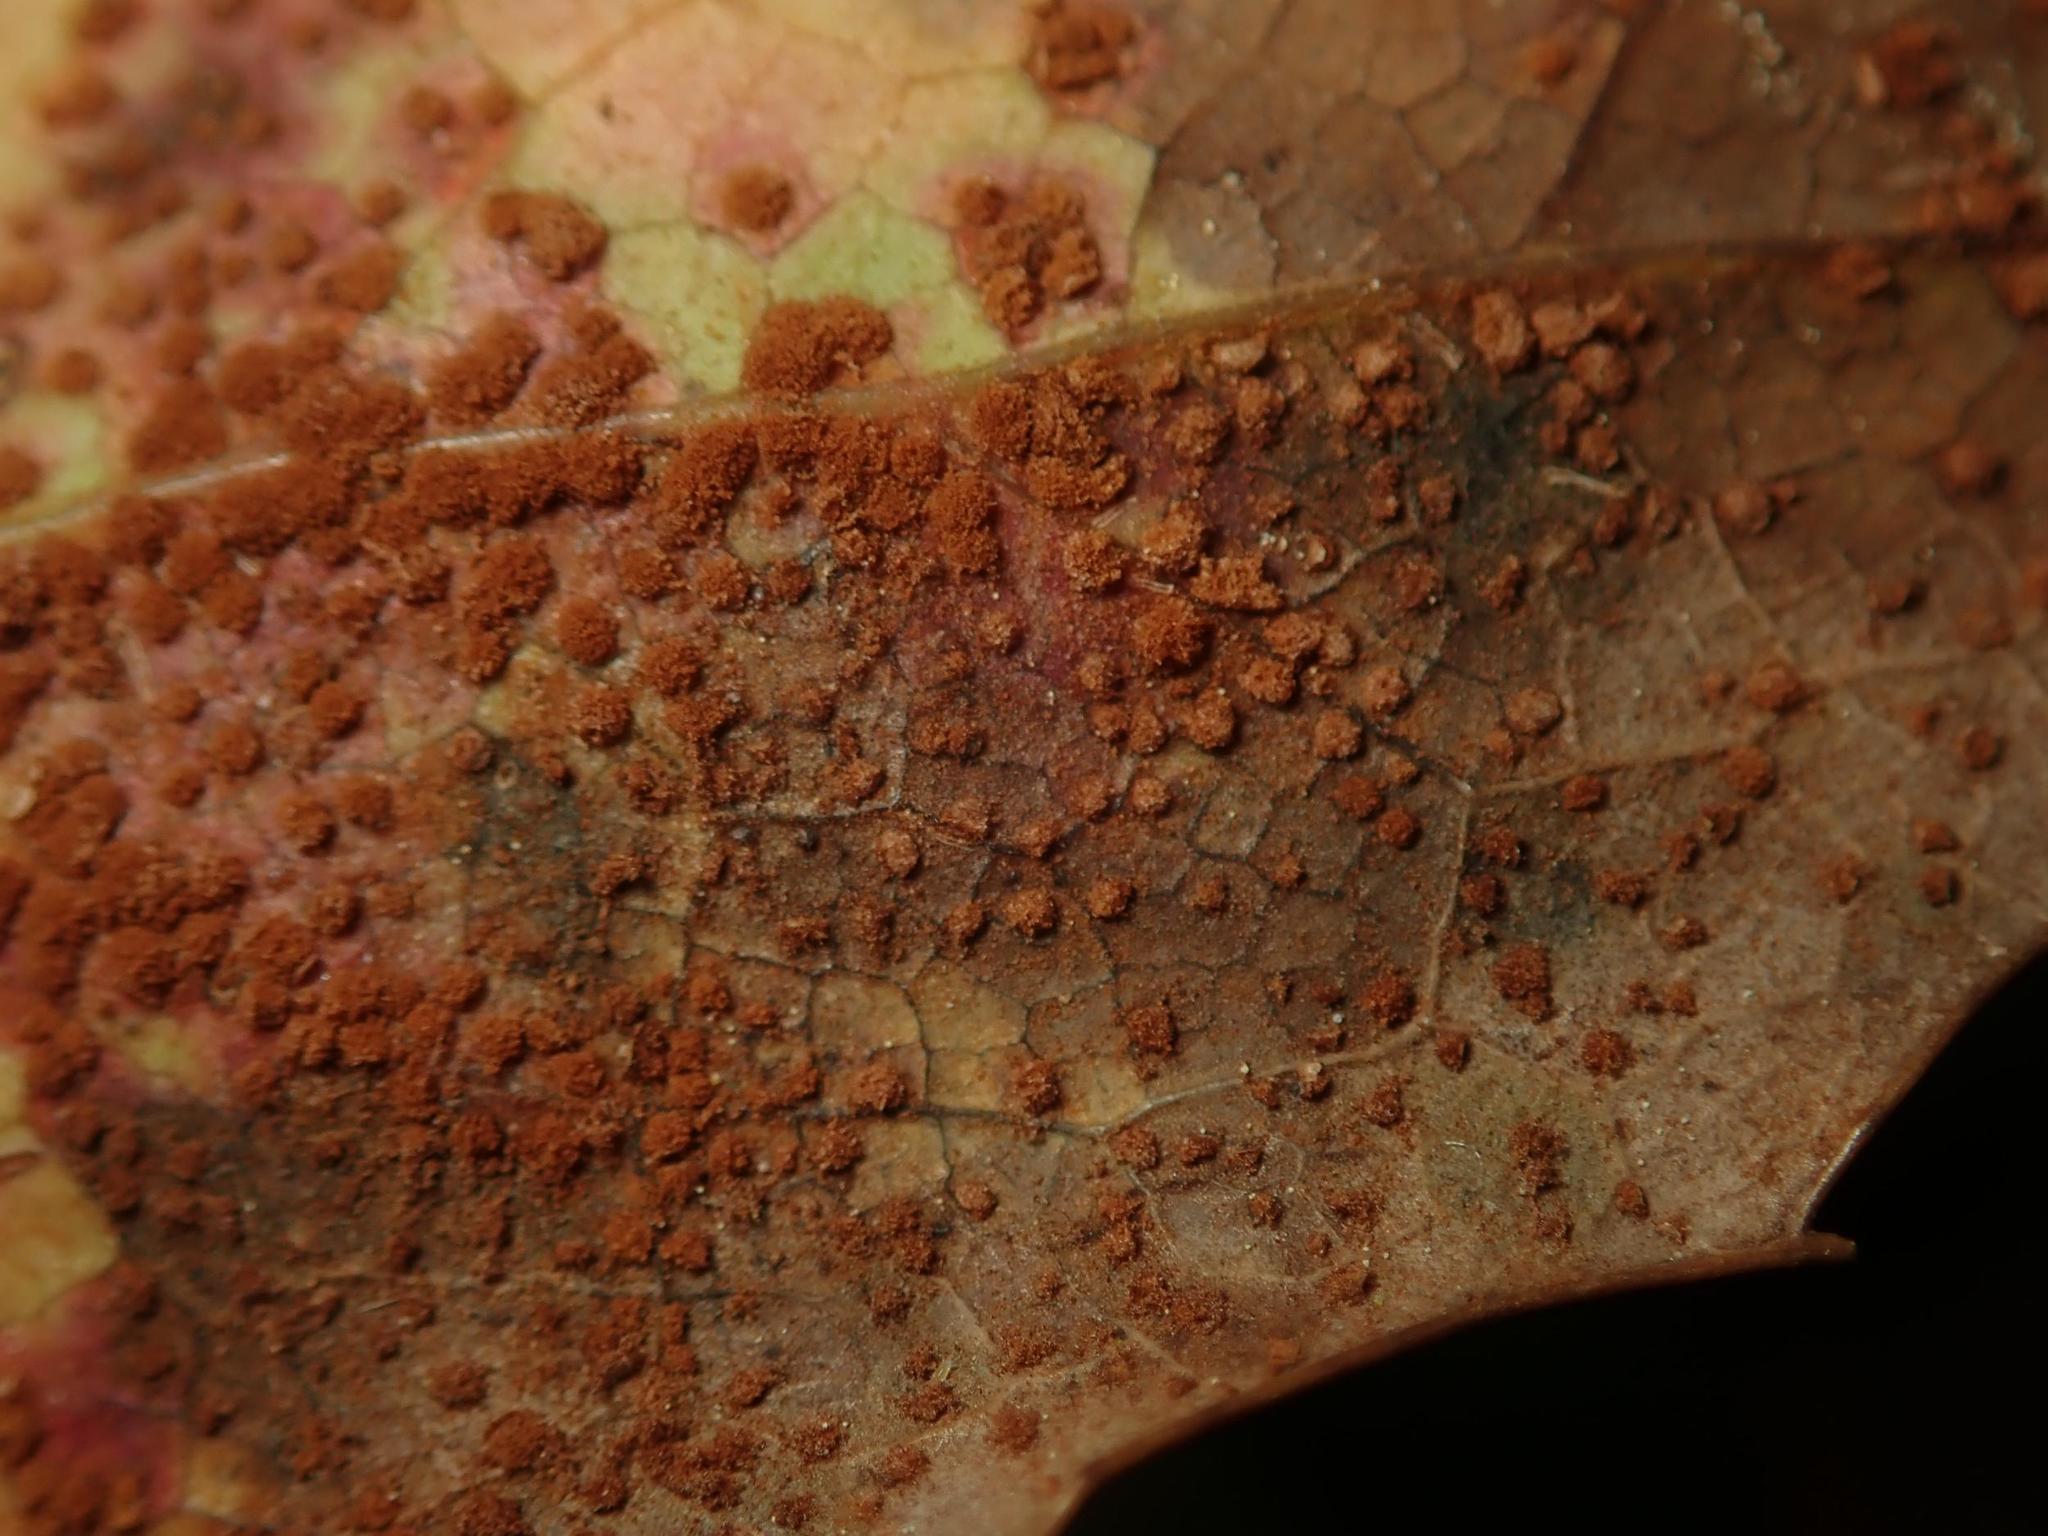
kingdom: Fungi
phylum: Basidiomycota
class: Pucciniomycetes
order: Pucciniales
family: Pucciniaceae
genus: Cumminsiella
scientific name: Cumminsiella mirabilissima
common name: Mahonia rust
